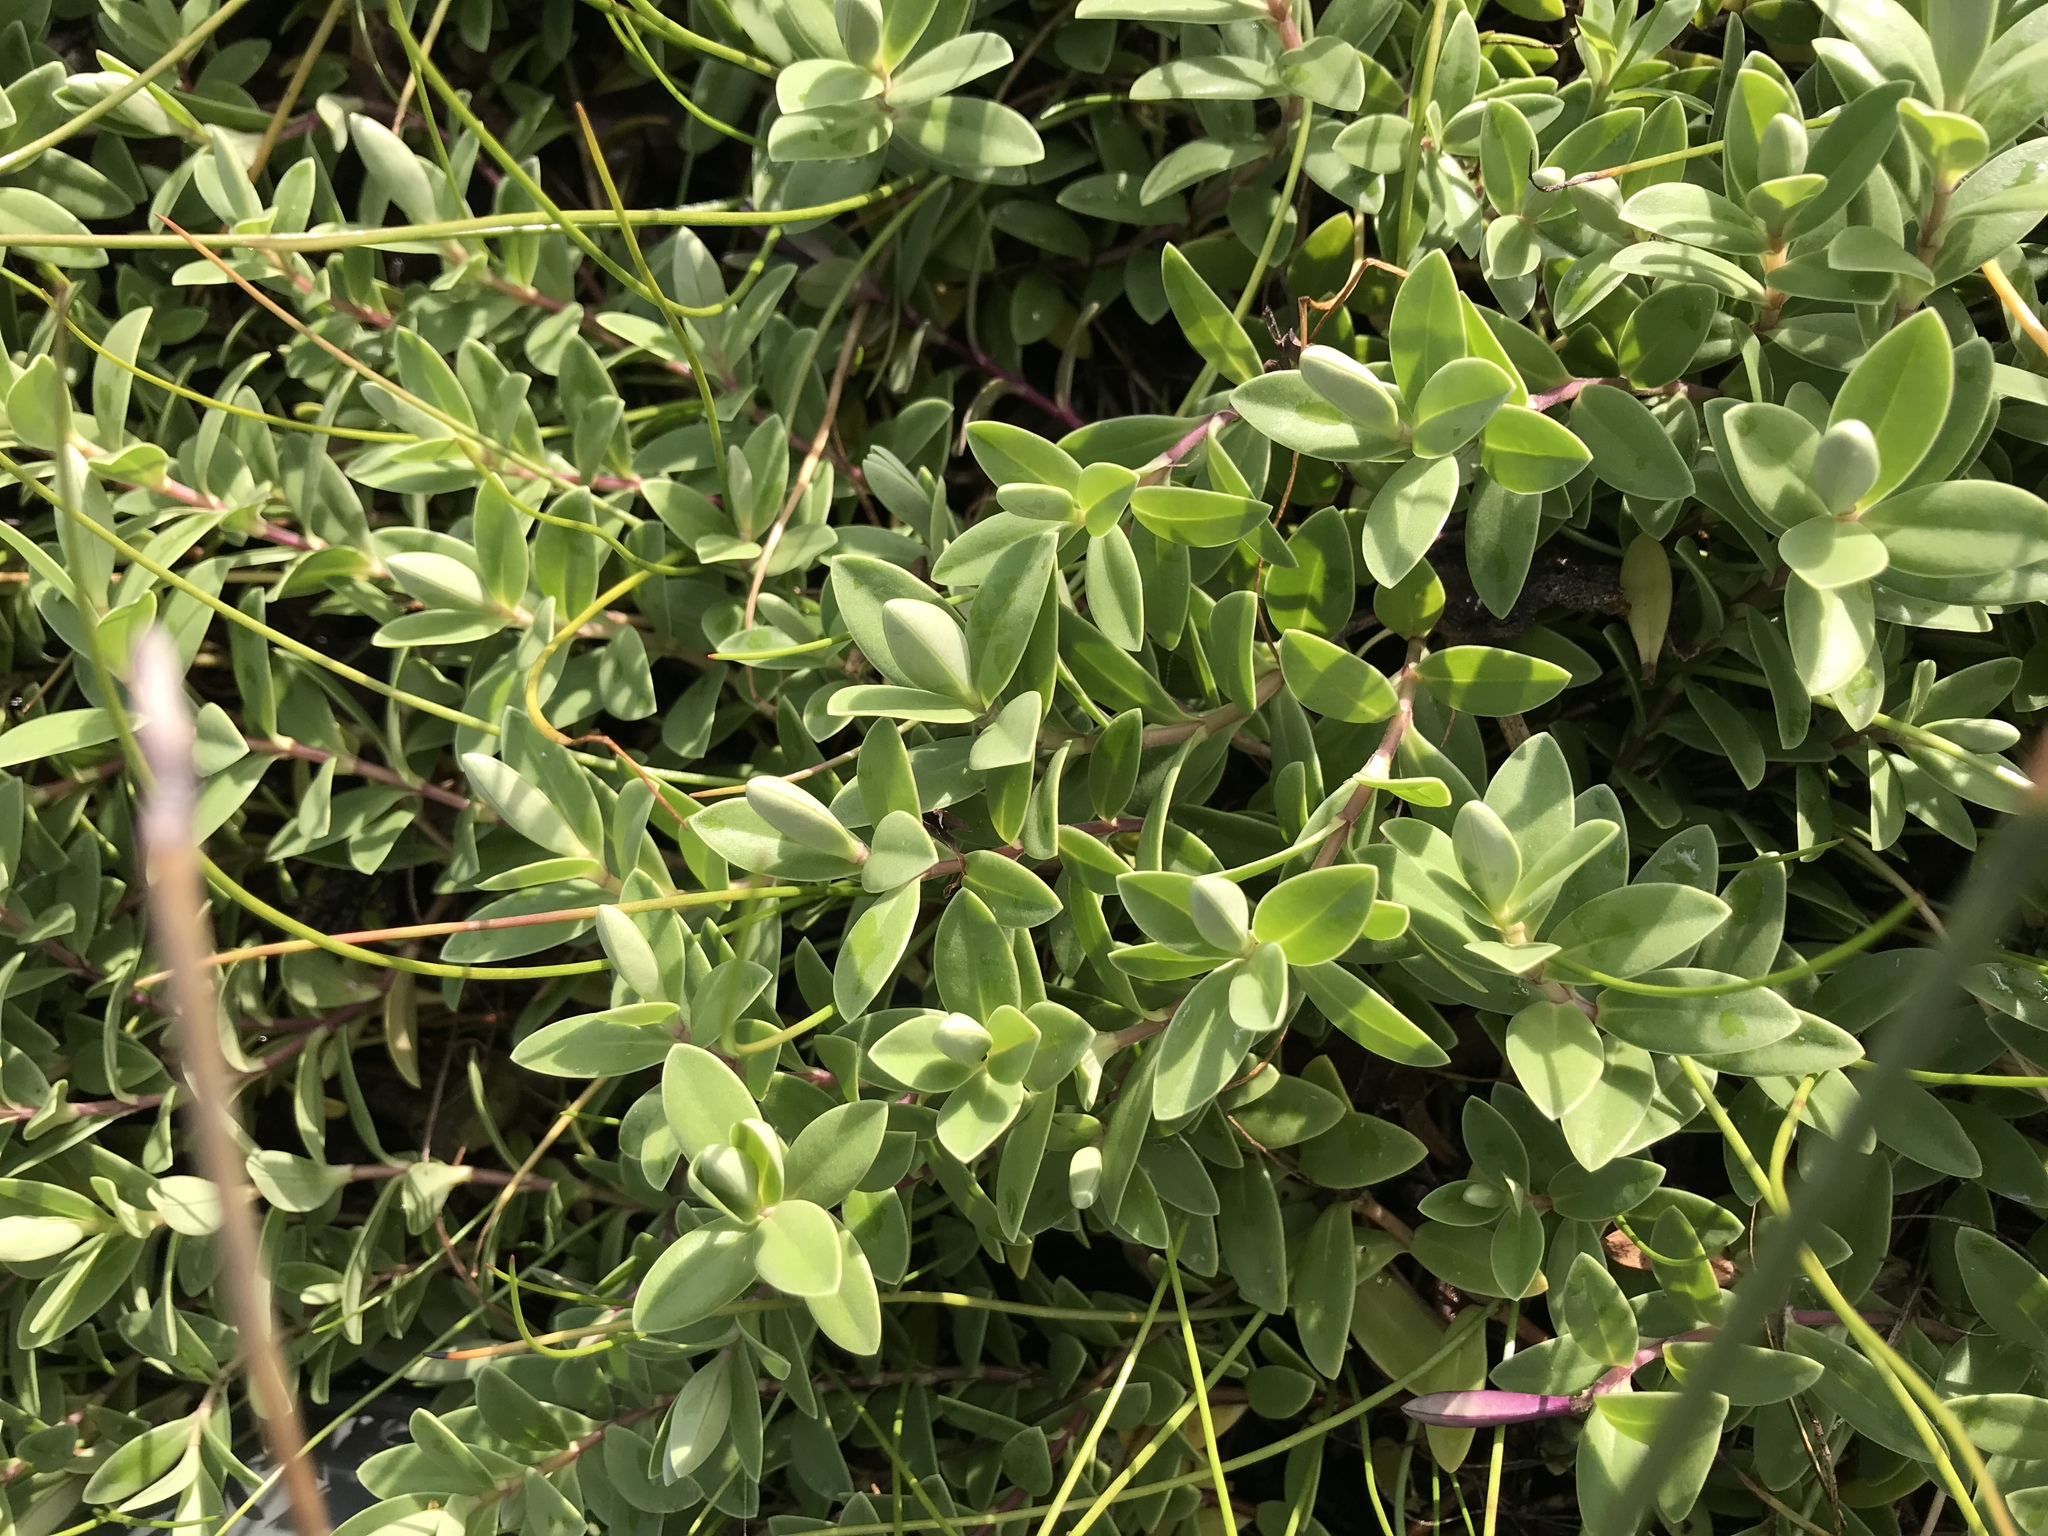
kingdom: Plantae
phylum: Tracheophyta
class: Magnoliopsida
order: Lamiales
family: Plantaginaceae
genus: Veronica
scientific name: Veronica chathamica
